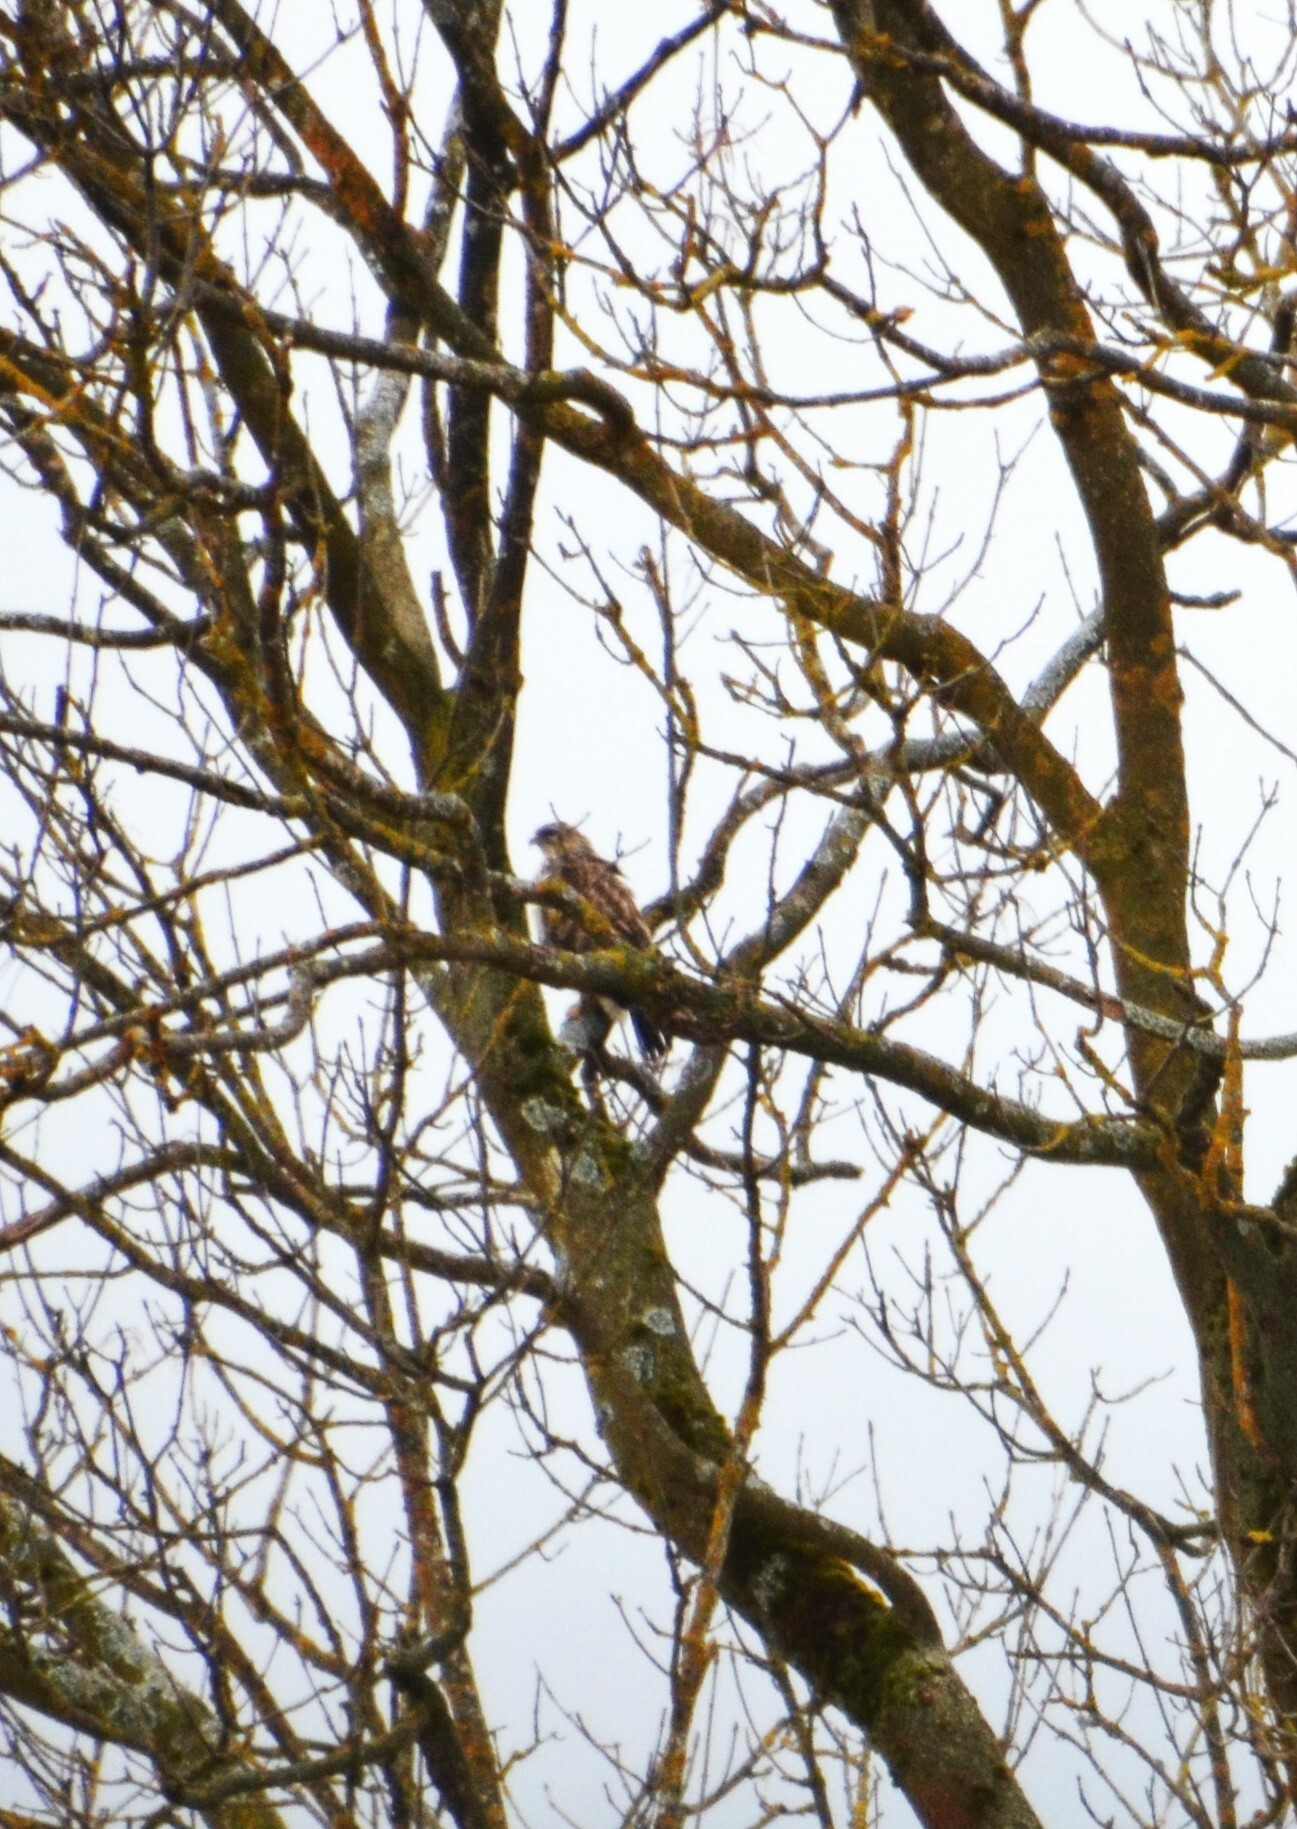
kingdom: Animalia
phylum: Chordata
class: Aves
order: Accipitriformes
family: Accipitridae
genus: Buteo
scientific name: Buteo buteo
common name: Common buzzard
